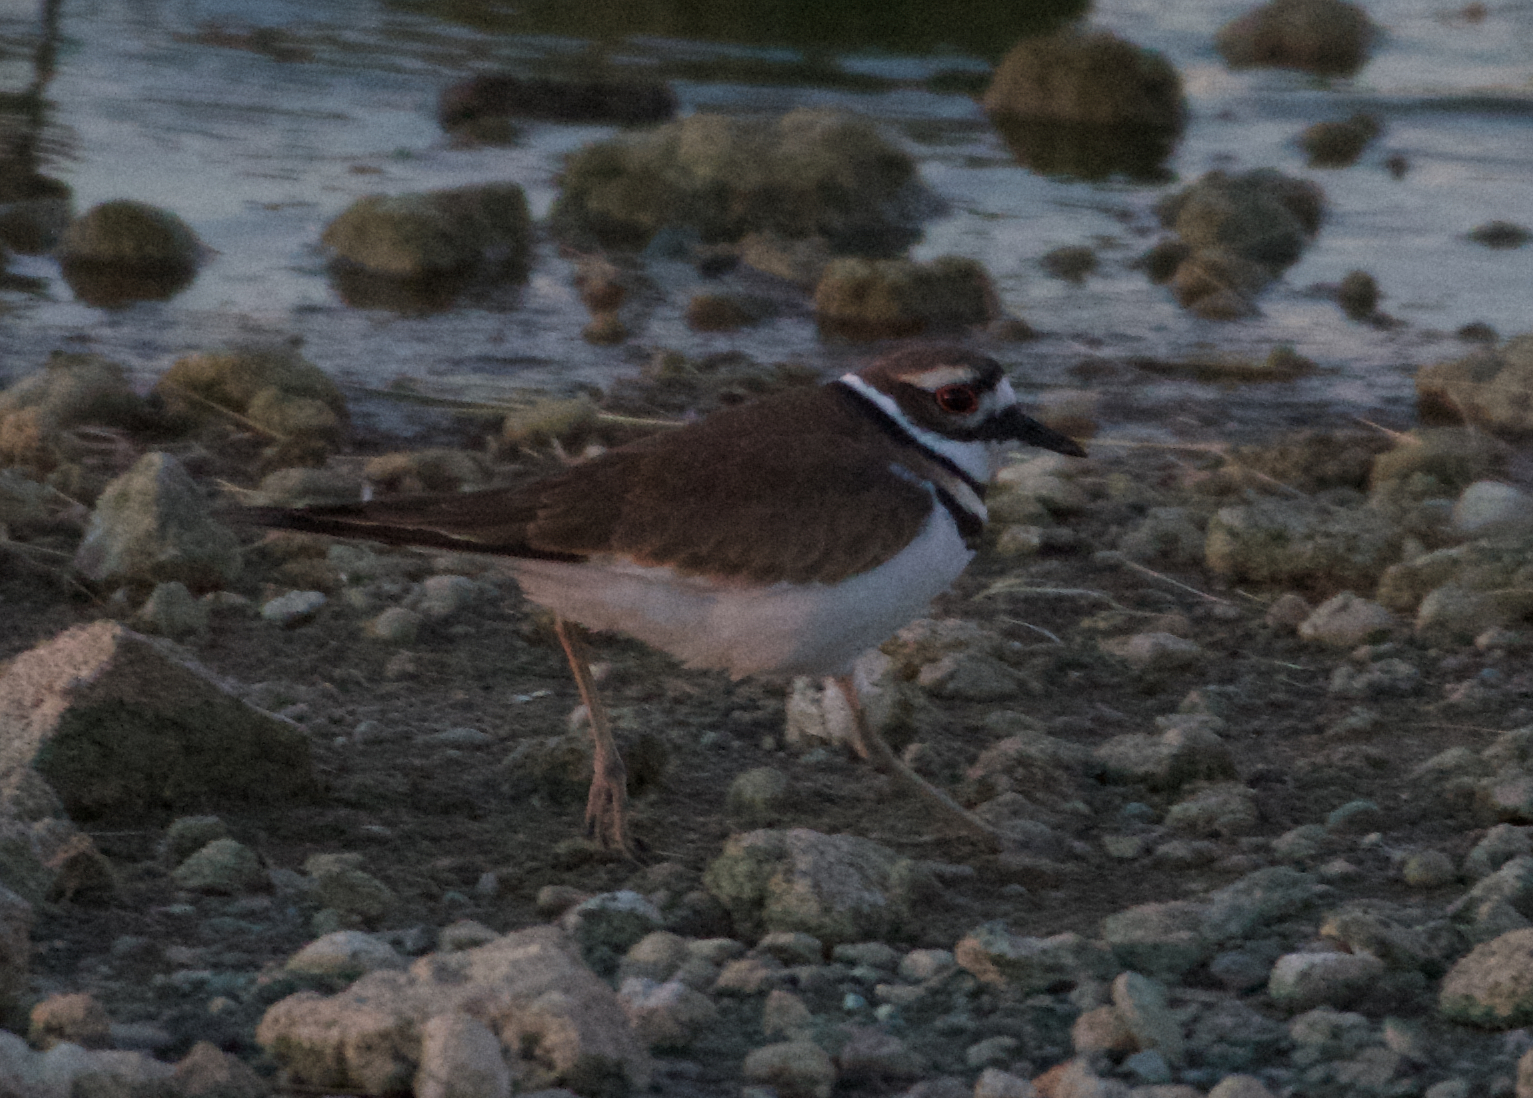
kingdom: Animalia
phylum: Chordata
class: Aves
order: Charadriiformes
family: Charadriidae
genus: Charadrius
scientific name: Charadrius vociferus
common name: Killdeer
